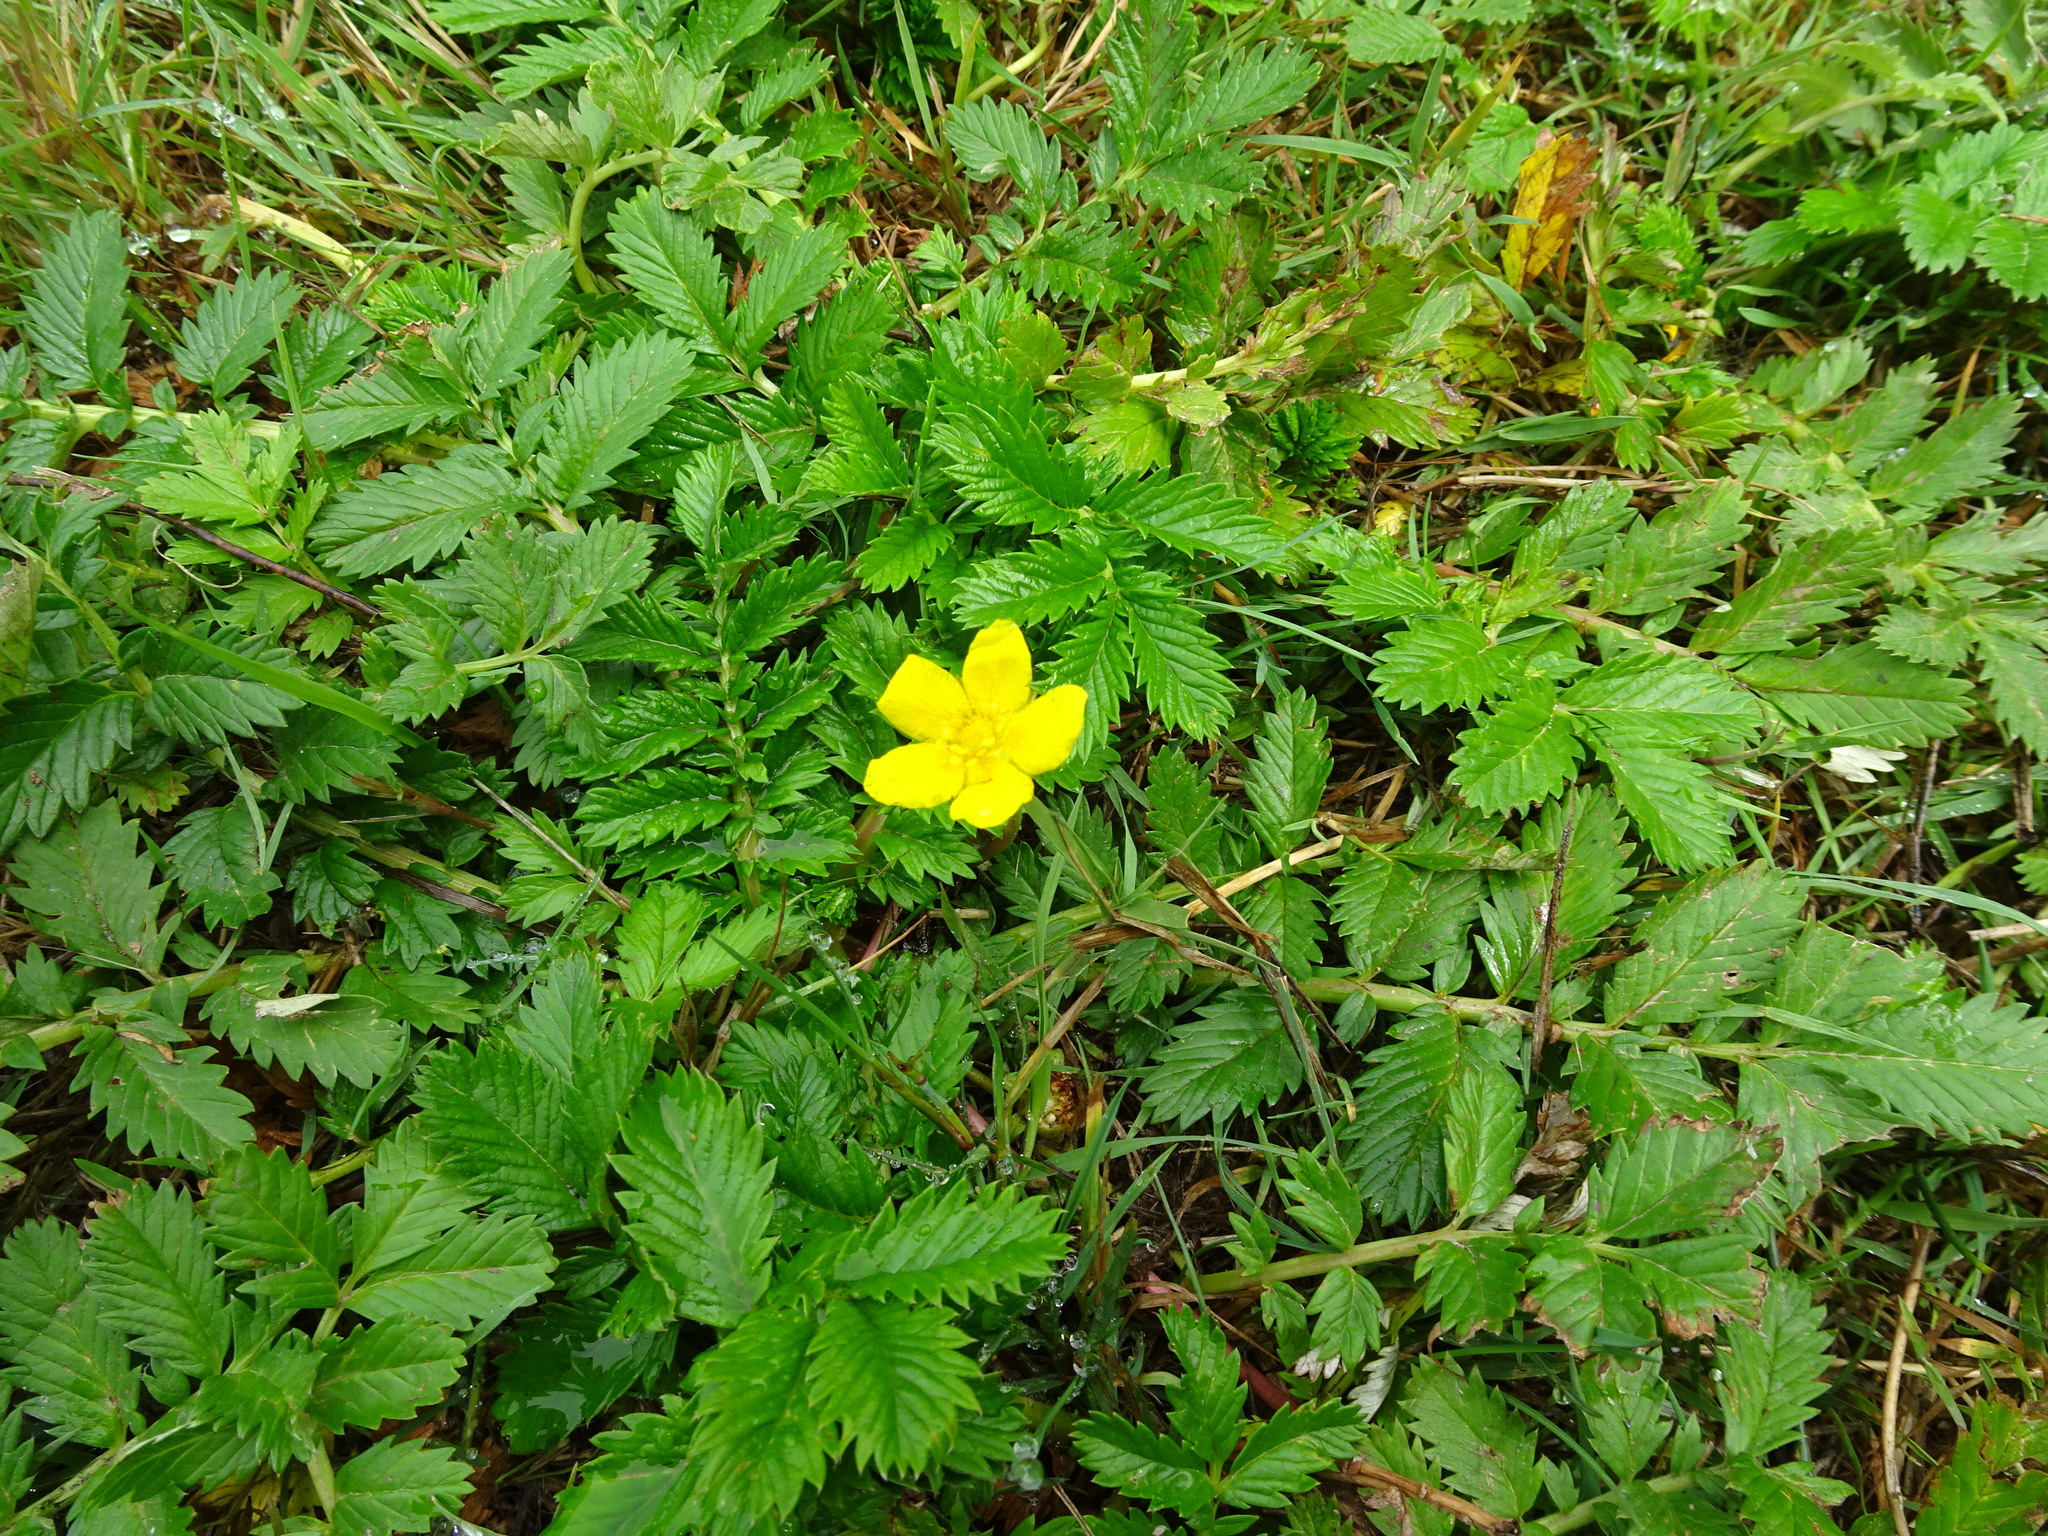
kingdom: Plantae
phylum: Tracheophyta
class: Magnoliopsida
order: Rosales
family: Rosaceae
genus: Argentina
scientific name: Argentina anserina
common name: Common silverweed
